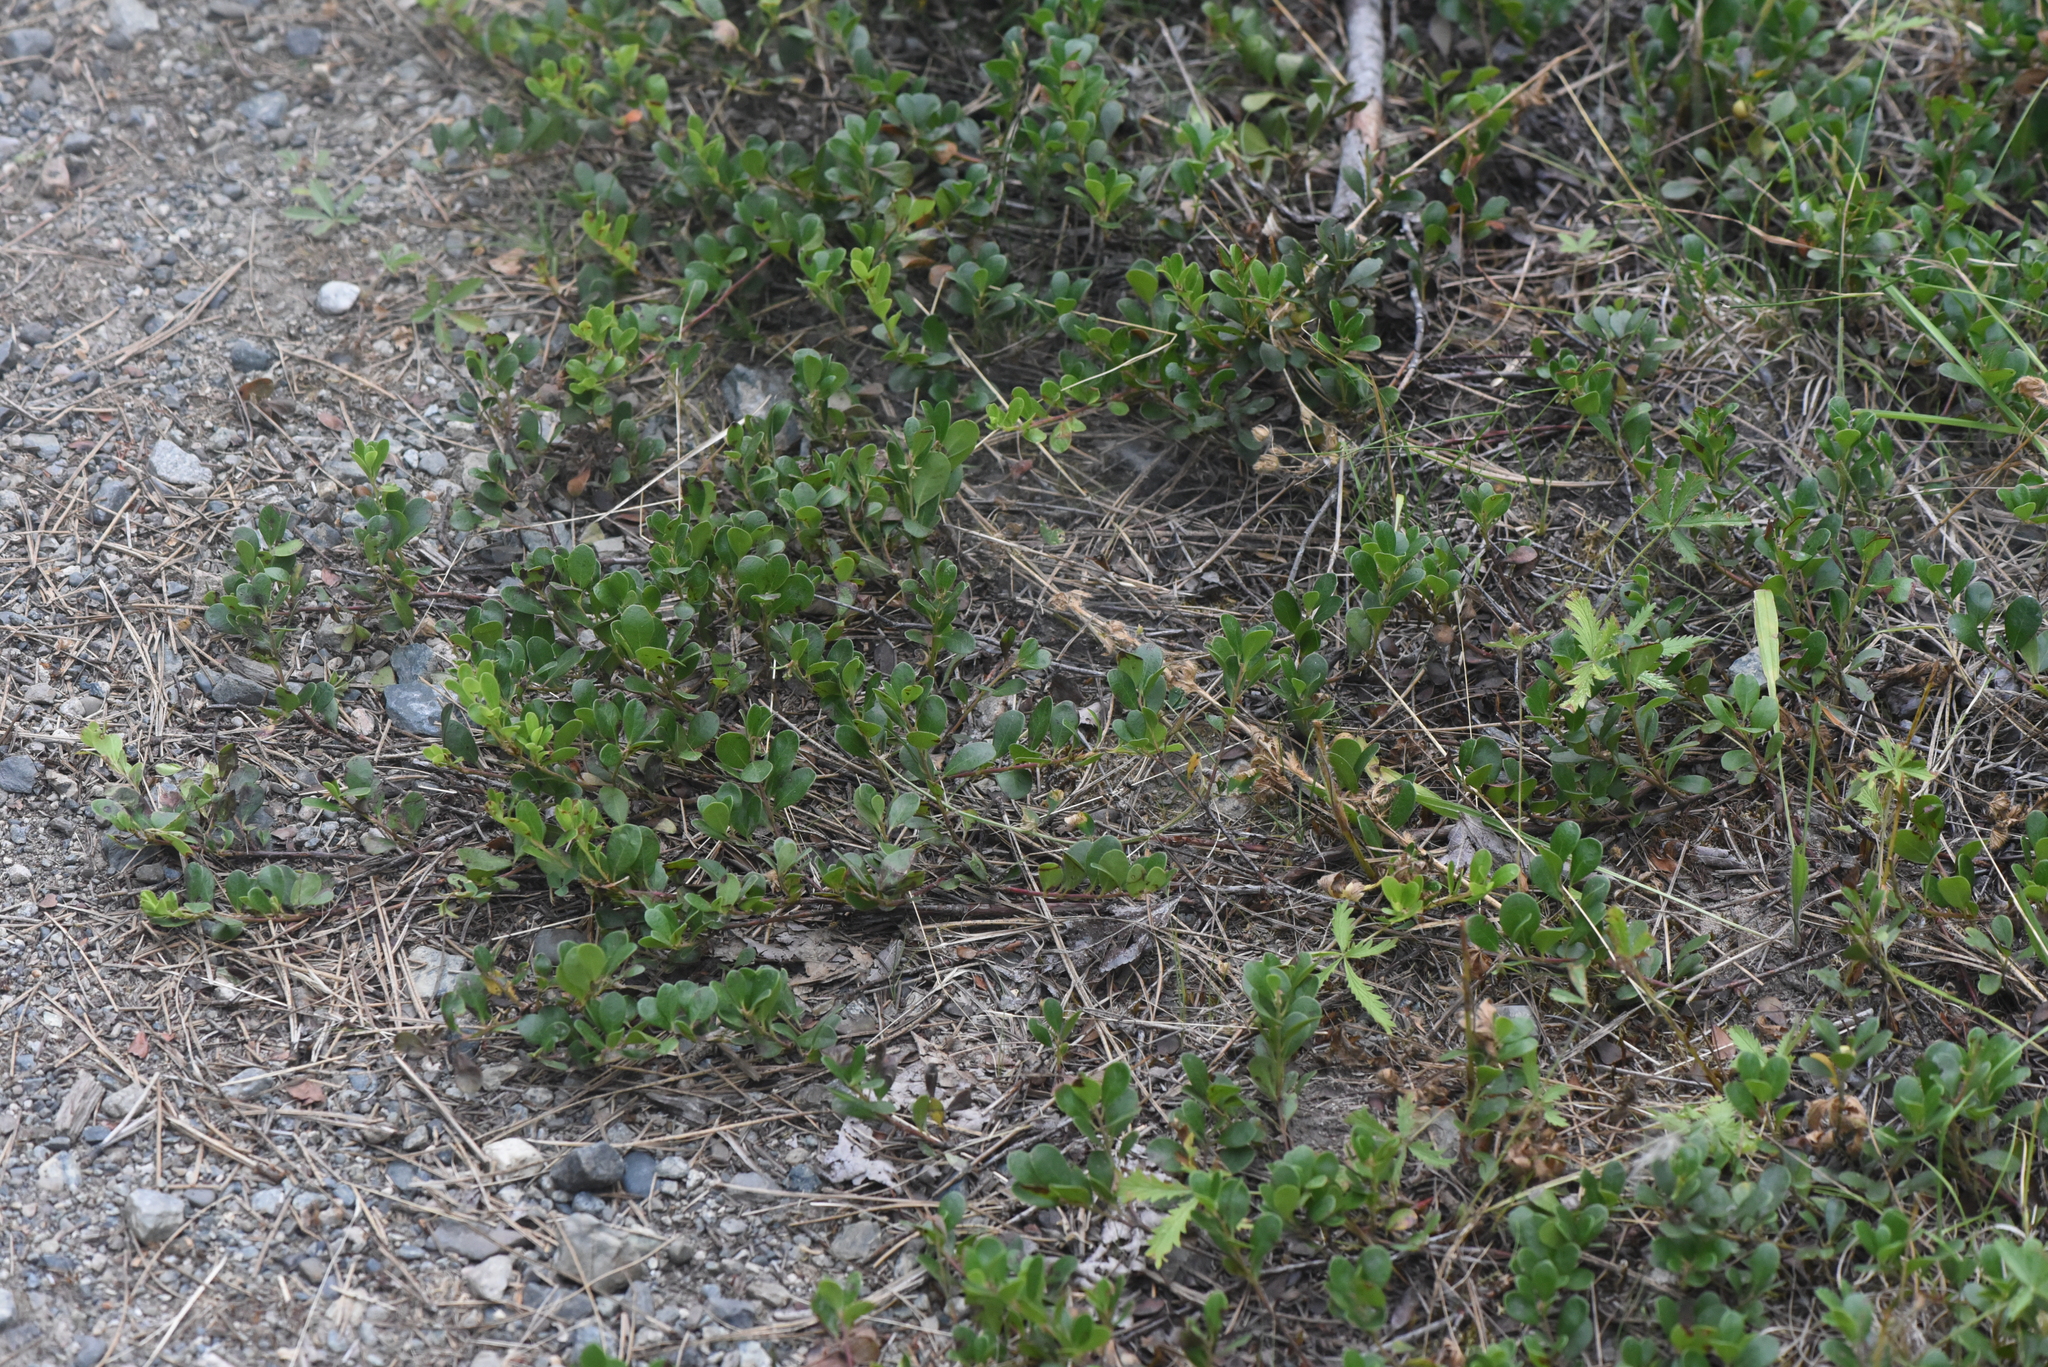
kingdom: Plantae
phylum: Tracheophyta
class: Magnoliopsida
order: Ericales
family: Ericaceae
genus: Arctostaphylos
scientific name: Arctostaphylos uva-ursi
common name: Bearberry
